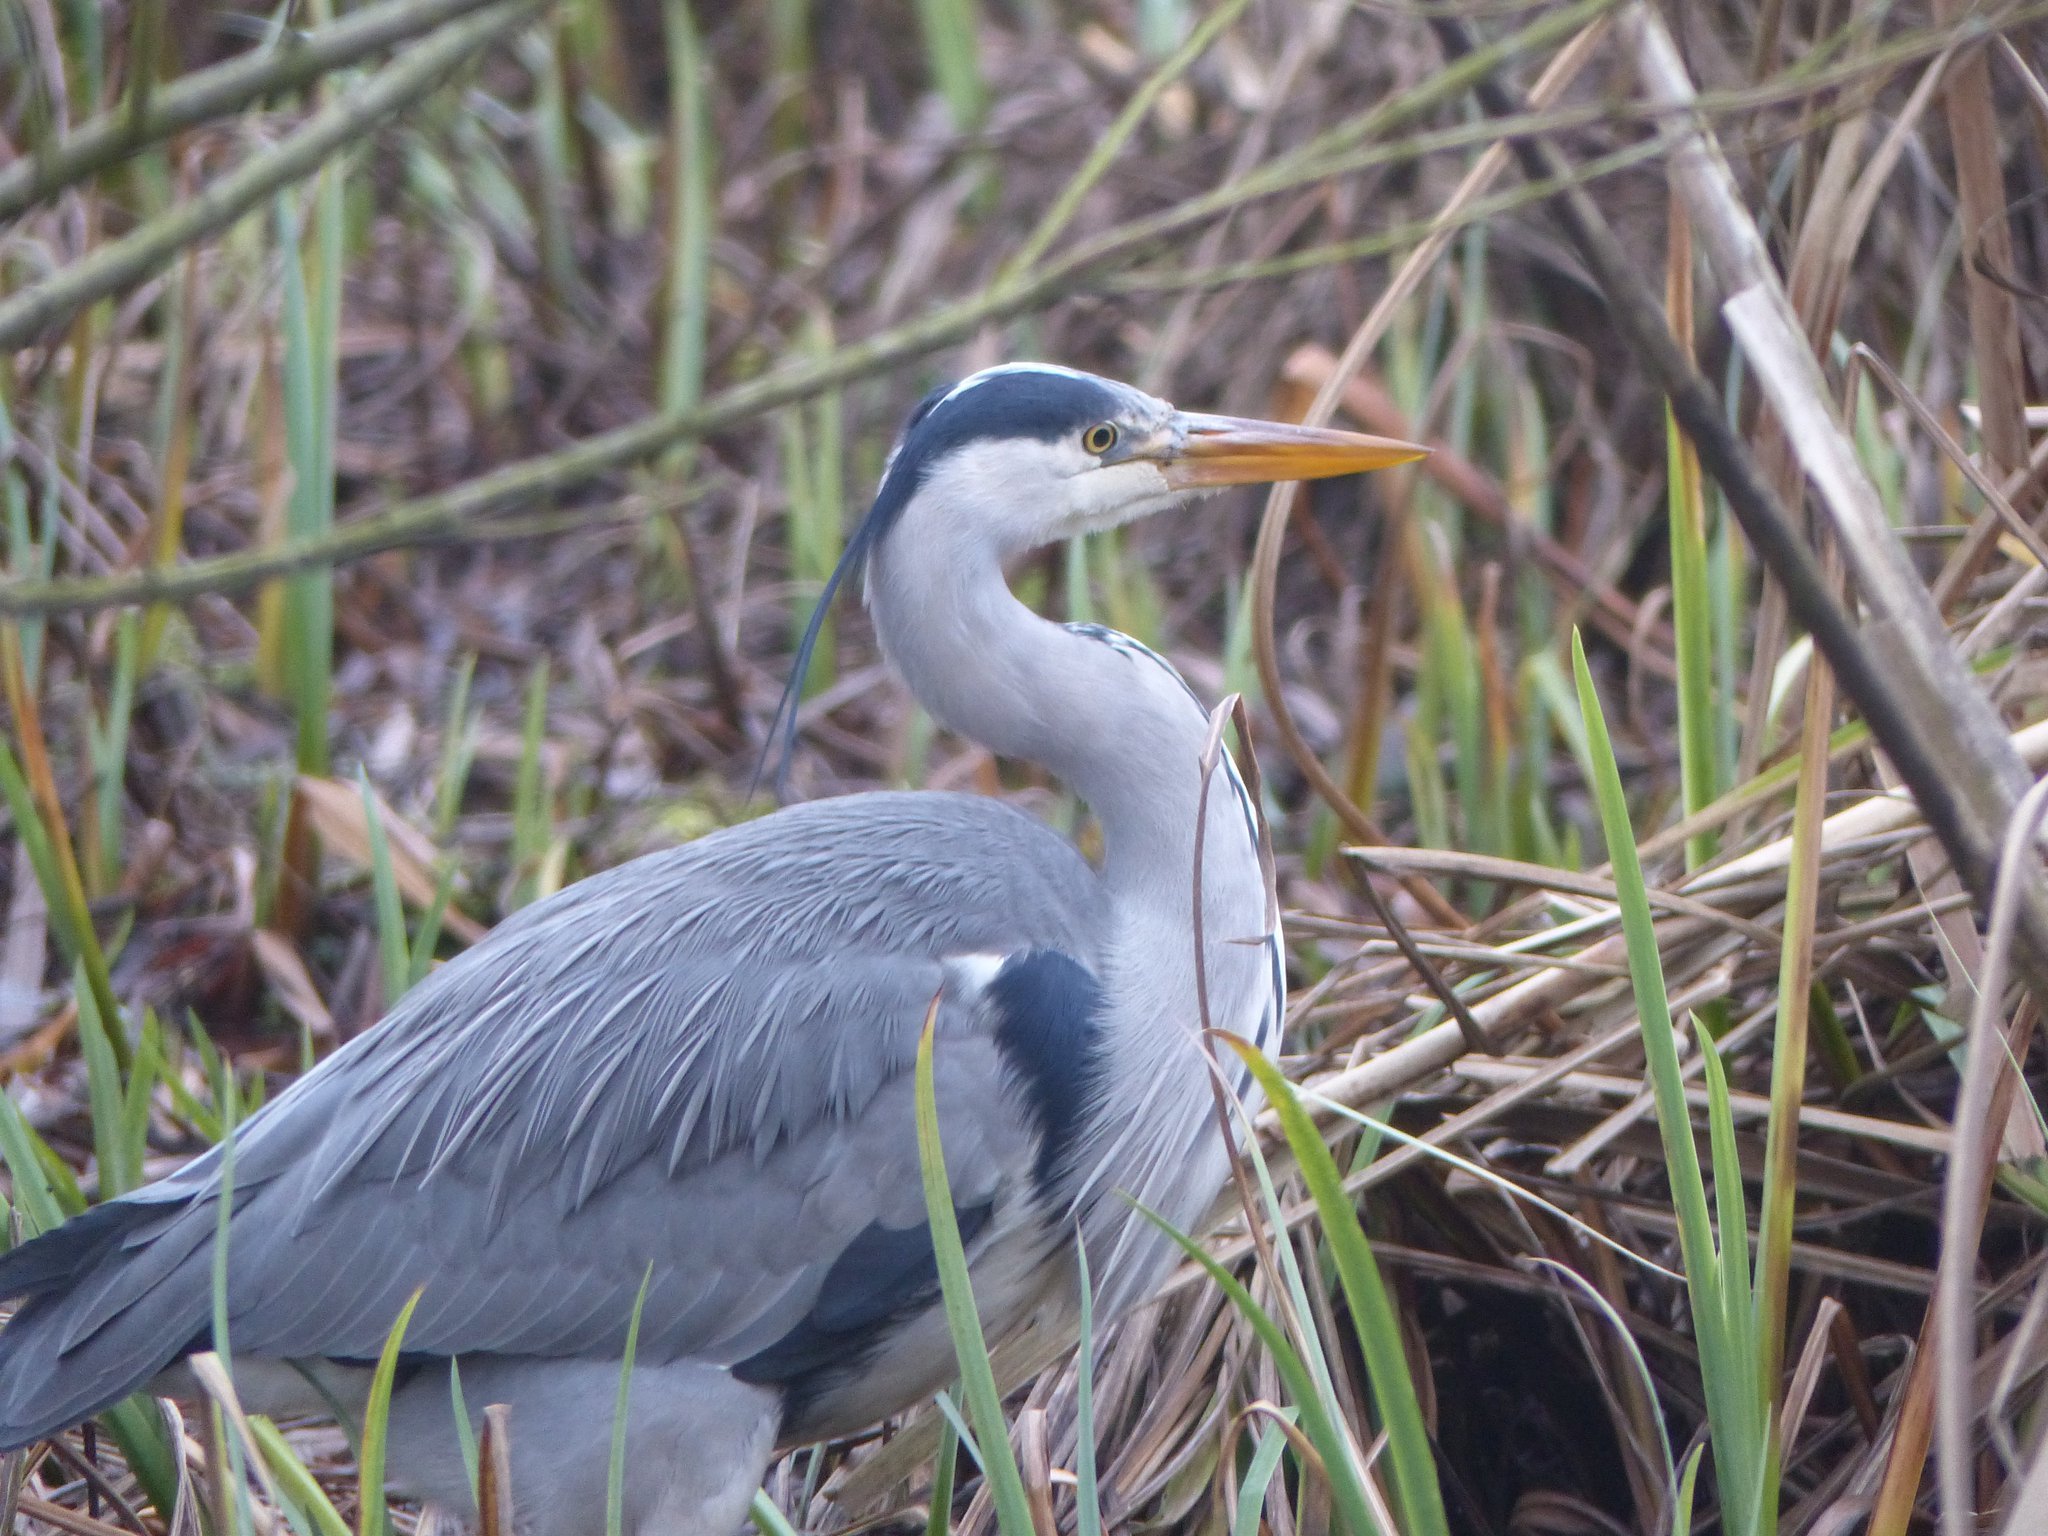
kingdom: Animalia
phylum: Chordata
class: Aves
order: Pelecaniformes
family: Ardeidae
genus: Ardea
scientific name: Ardea cinerea
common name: Grey heron
